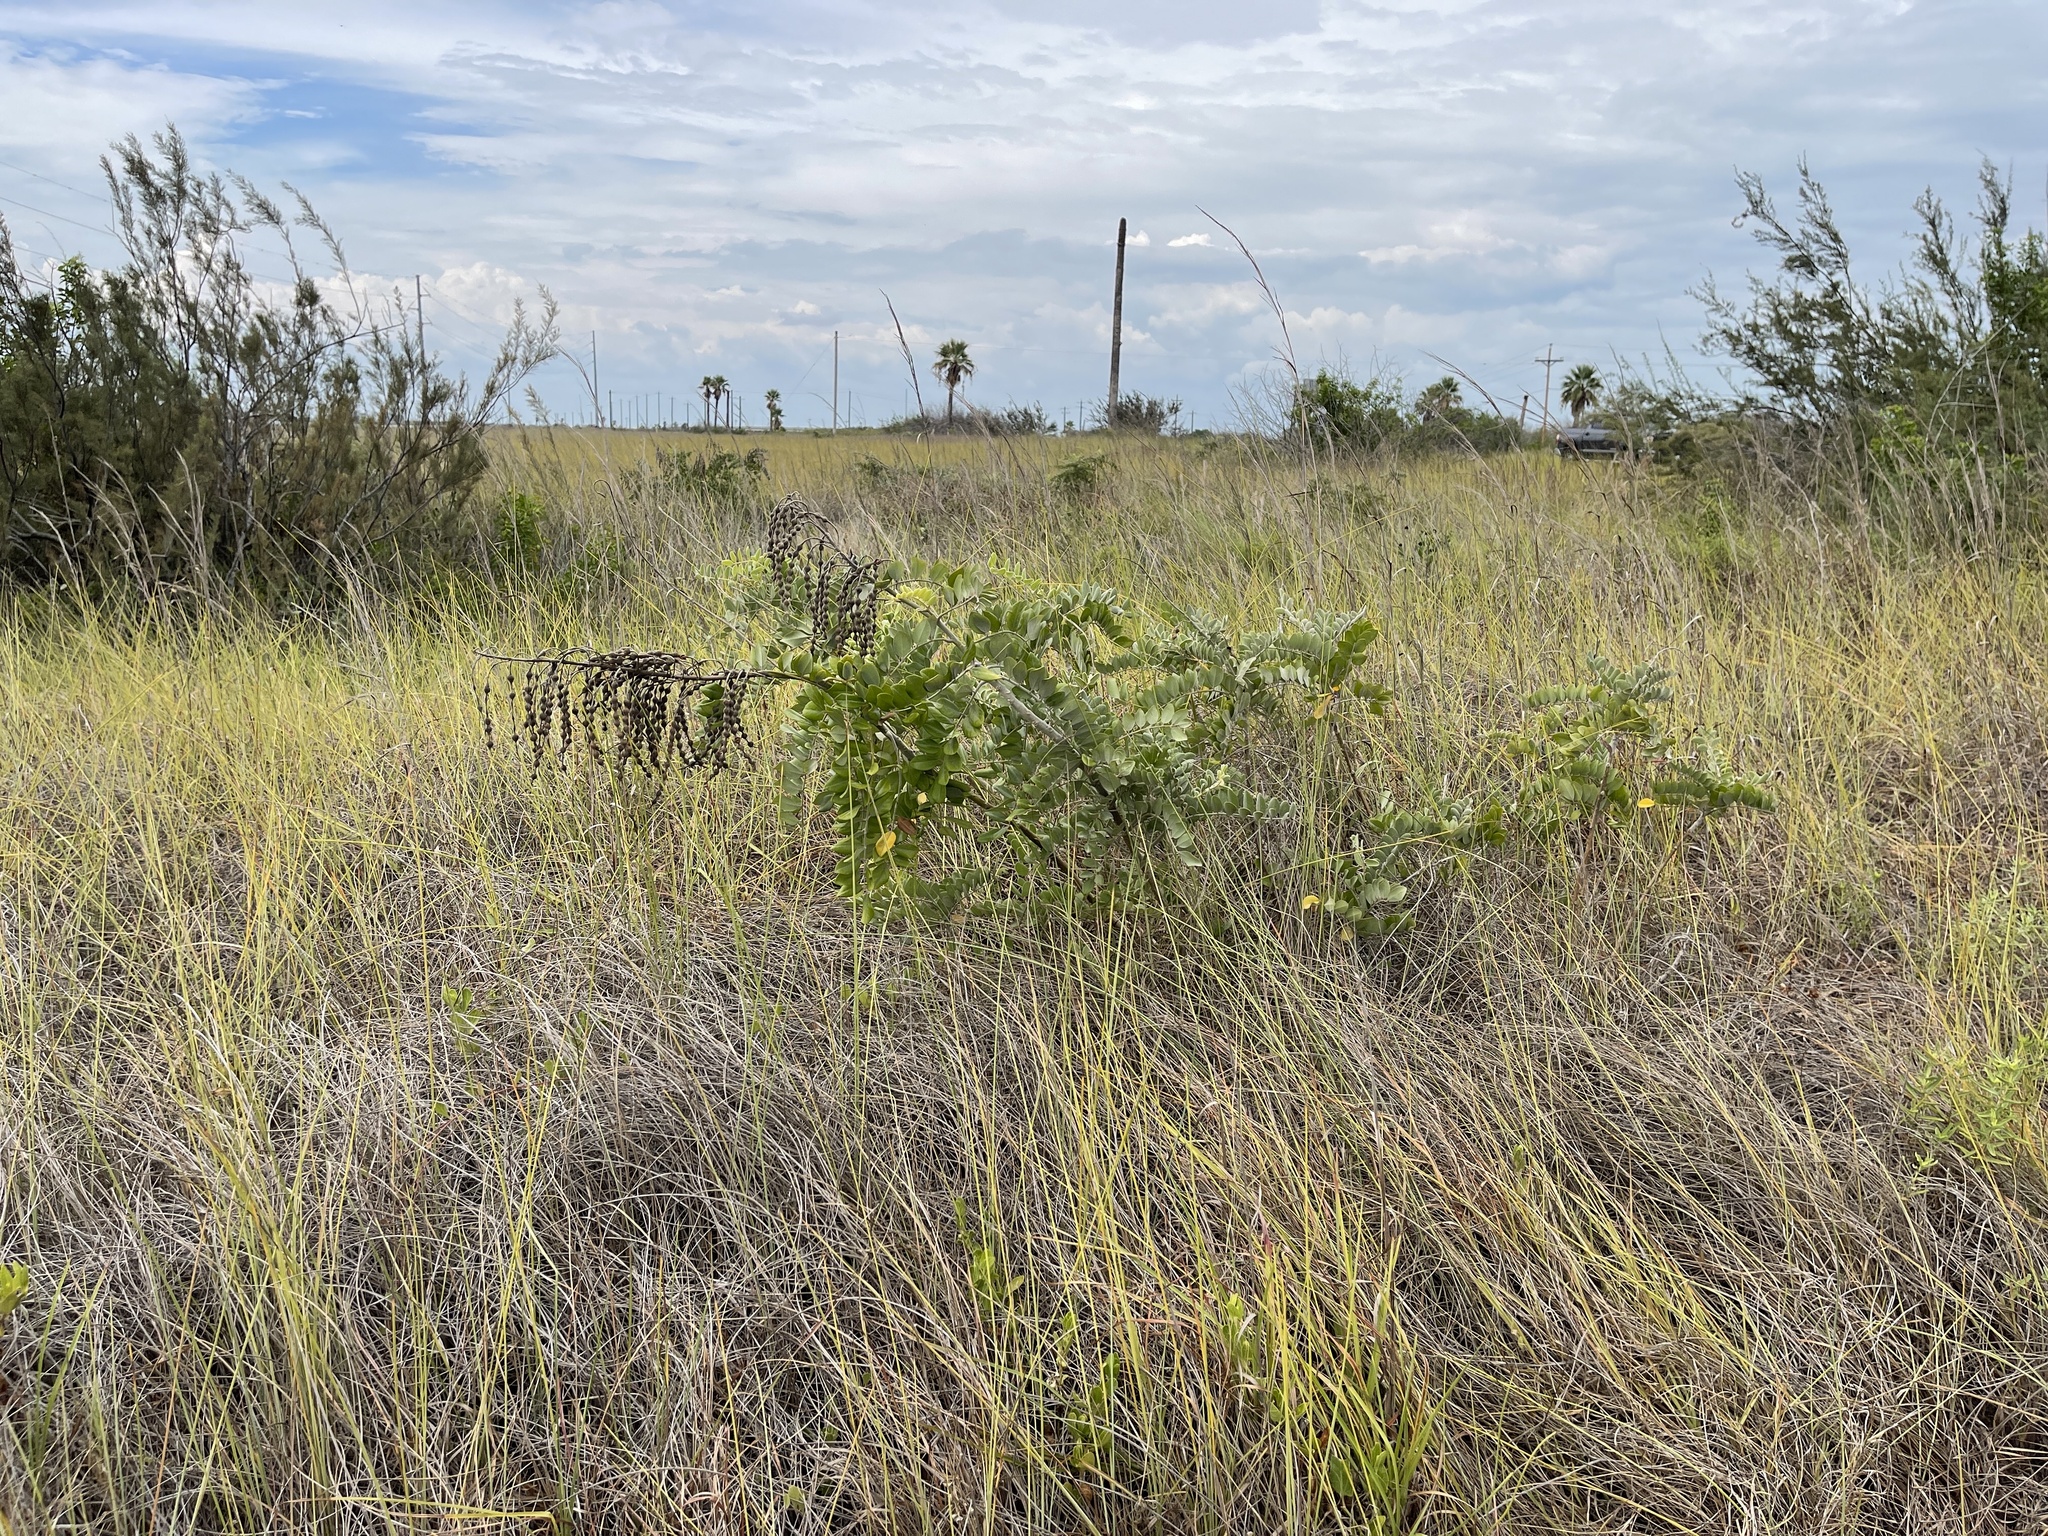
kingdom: Plantae
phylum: Tracheophyta
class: Magnoliopsida
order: Fabales
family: Fabaceae
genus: Sophora
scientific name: Sophora tomentosa
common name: Yellow necklacepod
